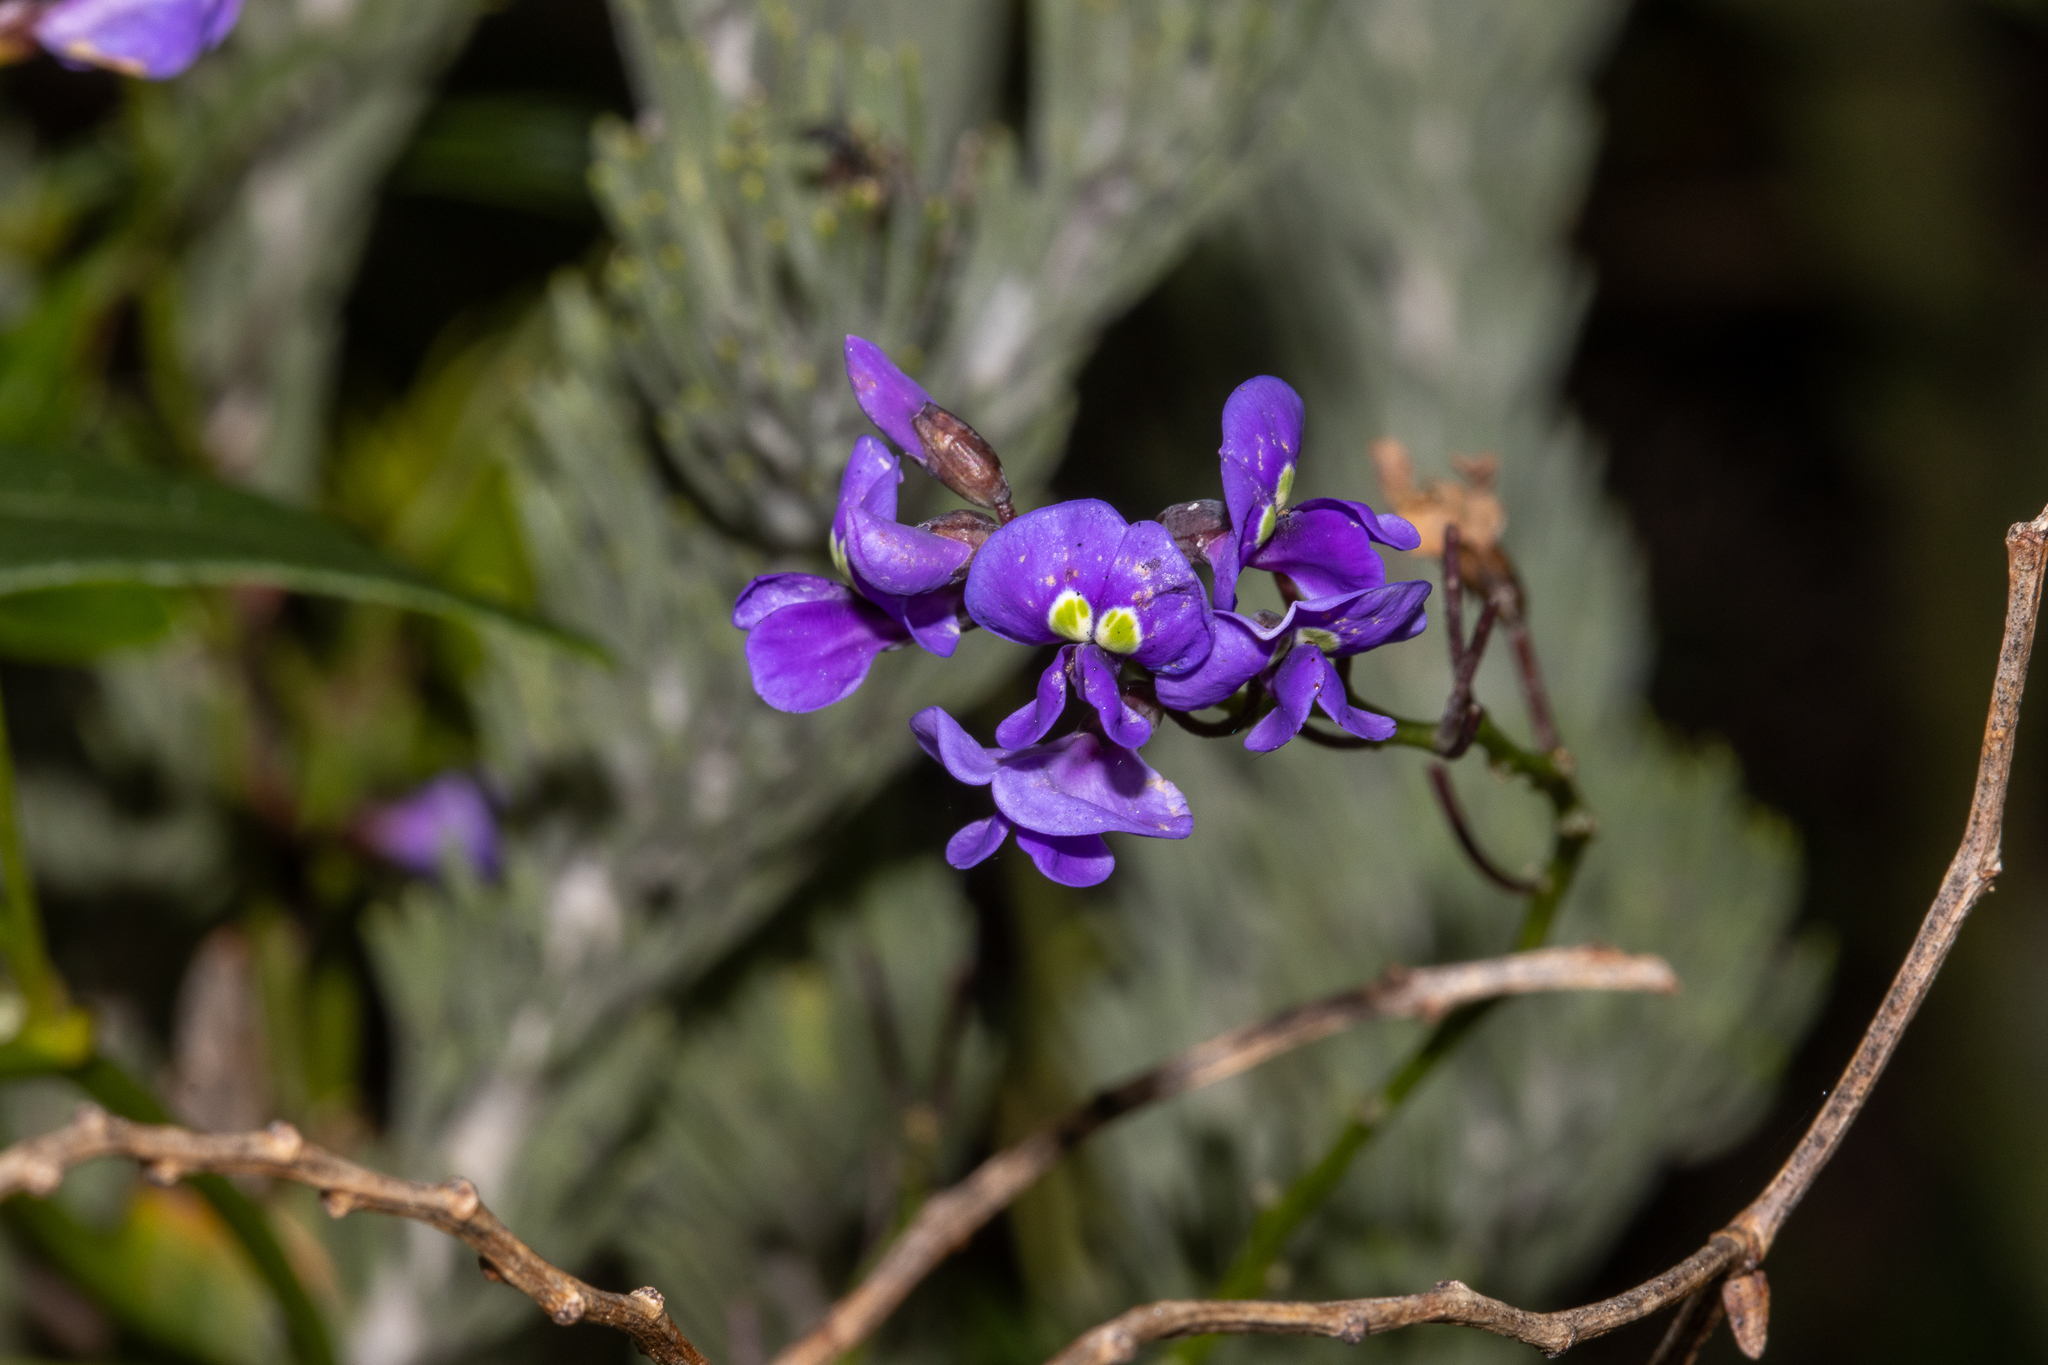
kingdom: Plantae
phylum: Tracheophyta
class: Magnoliopsida
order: Fabales
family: Fabaceae
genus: Hardenbergia
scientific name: Hardenbergia comptoniana
